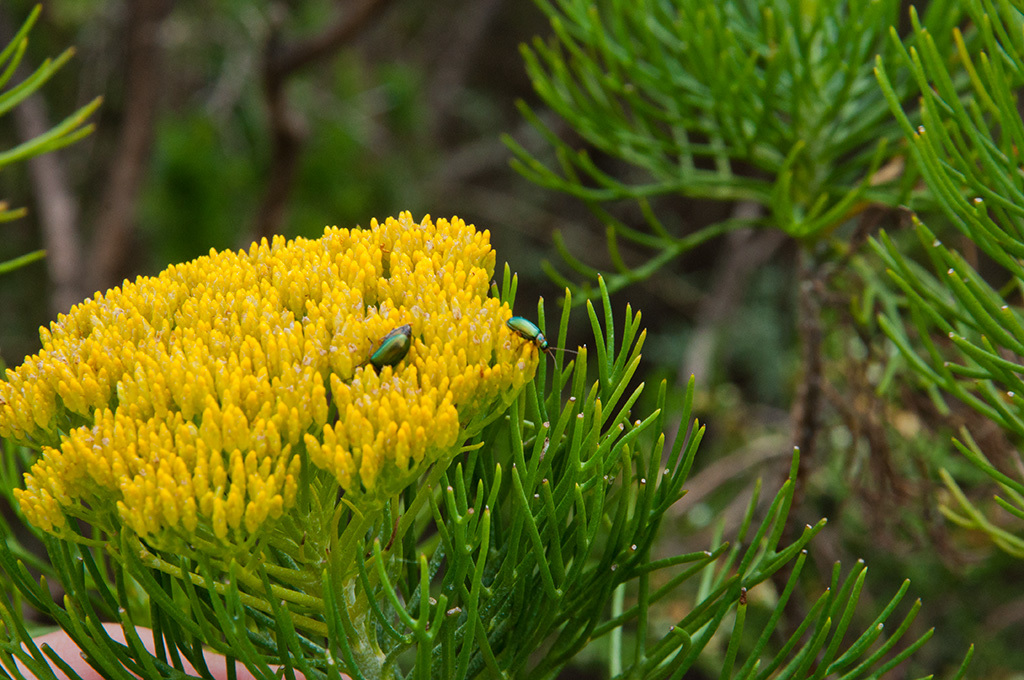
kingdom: Plantae
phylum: Tracheophyta
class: Magnoliopsida
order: Asterales
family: Asteraceae
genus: Hymenolepis
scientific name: Hymenolepis crithmifolia
